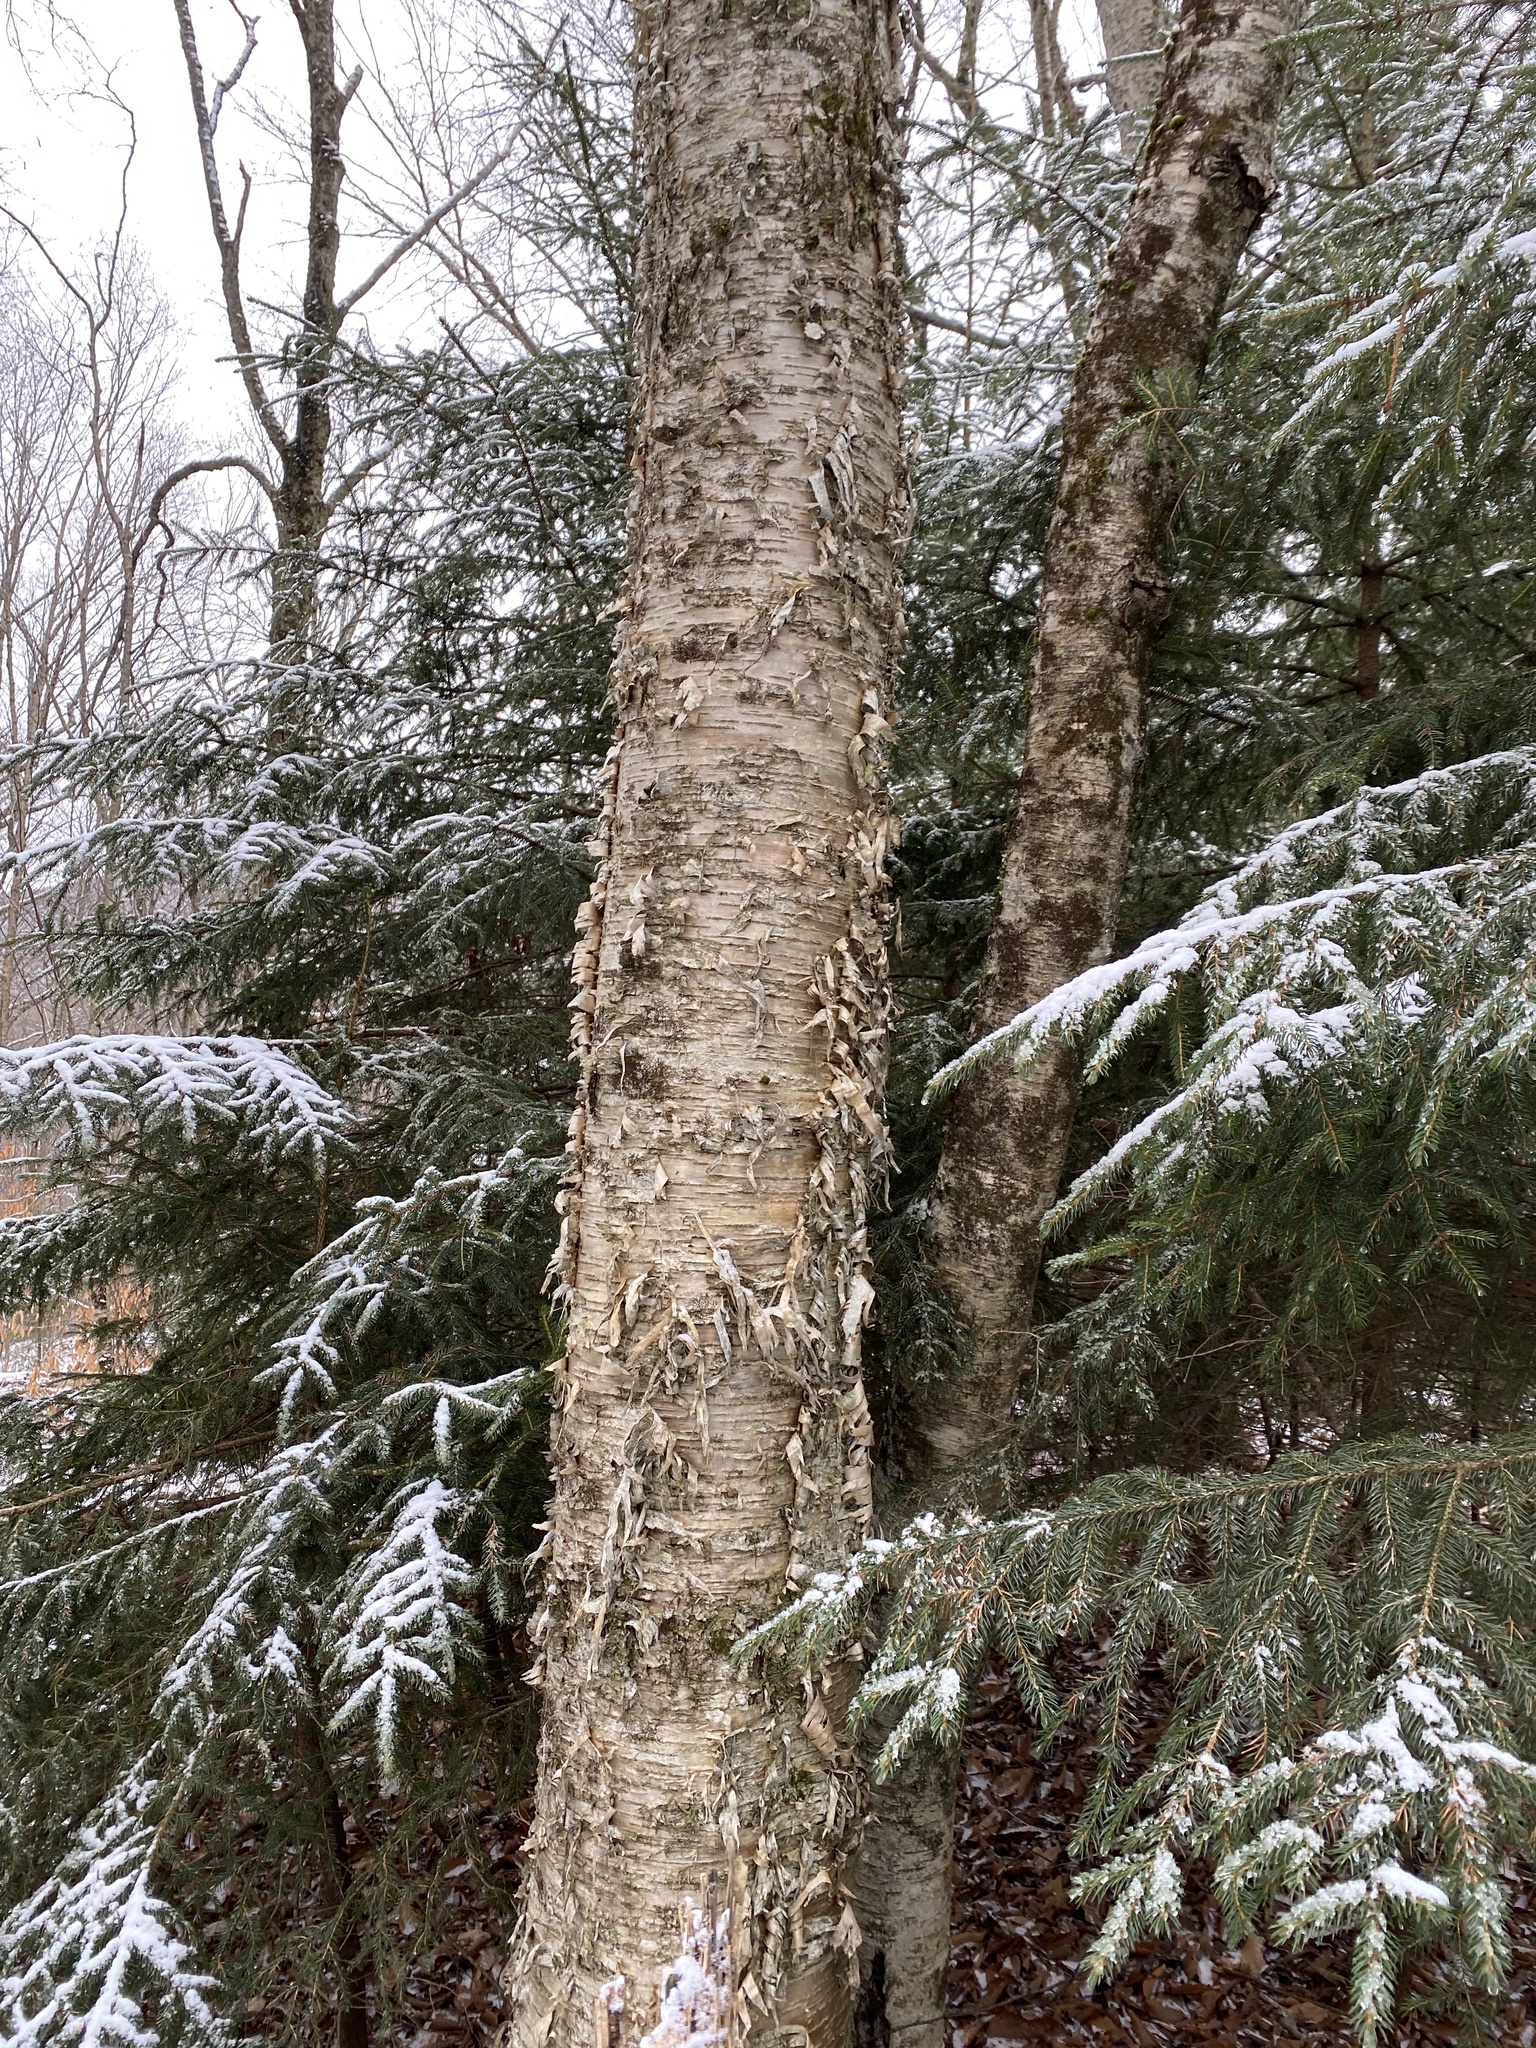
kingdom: Plantae
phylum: Tracheophyta
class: Magnoliopsida
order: Fagales
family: Betulaceae
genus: Betula
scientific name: Betula alleghaniensis
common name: Yellow birch
